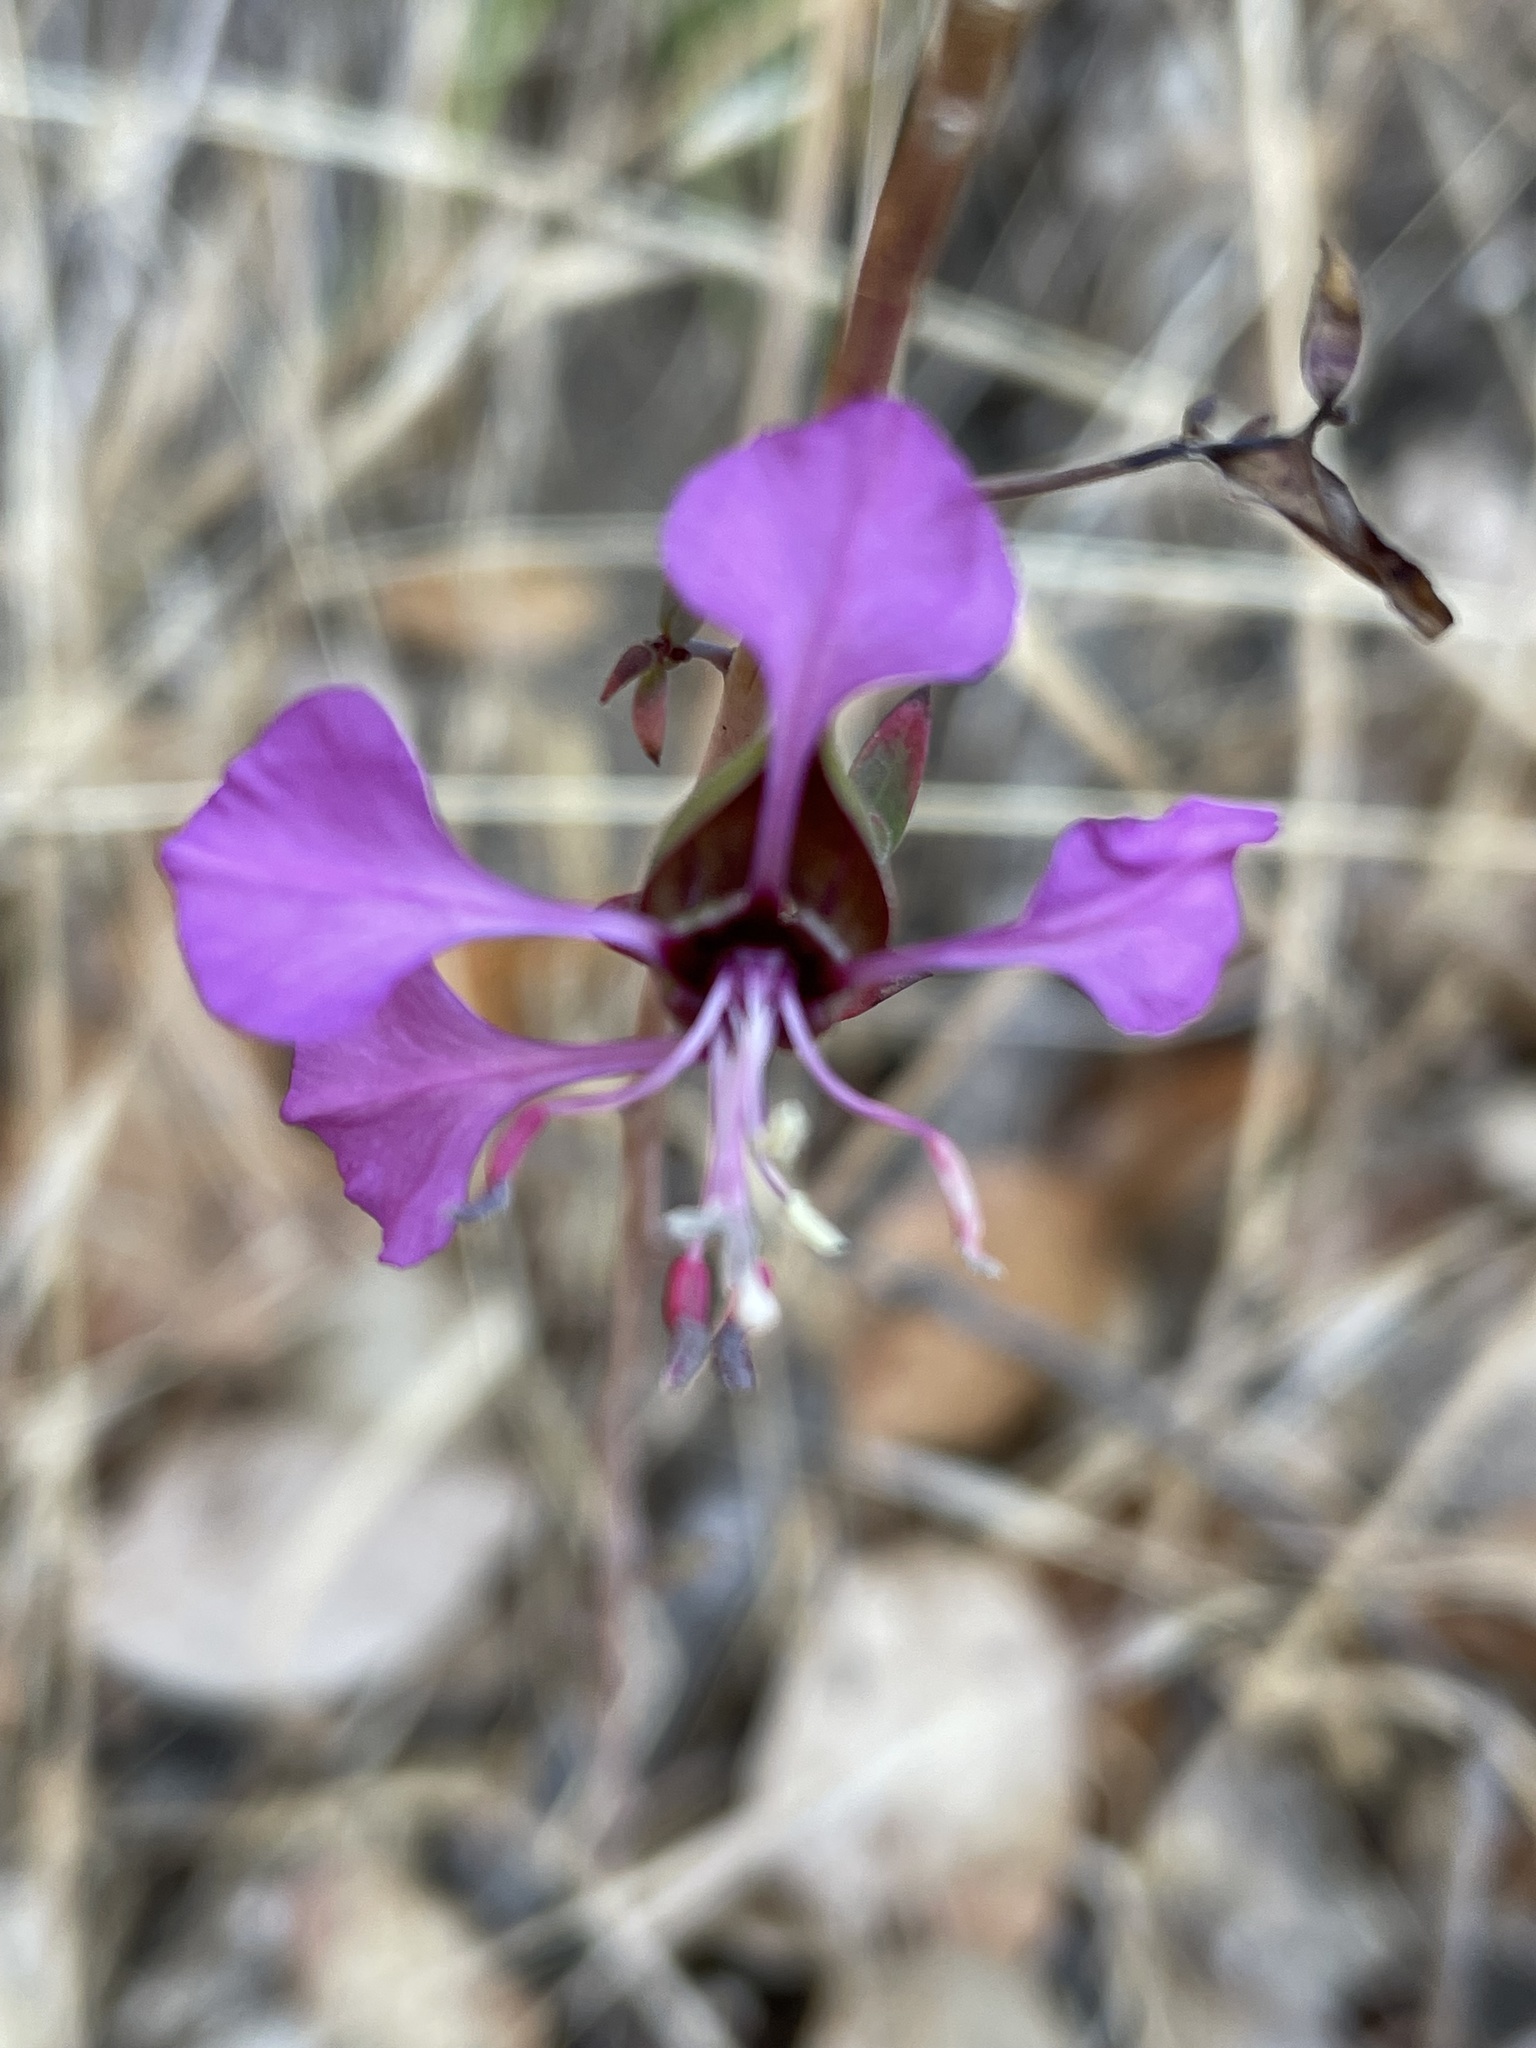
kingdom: Plantae
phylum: Tracheophyta
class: Magnoliopsida
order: Myrtales
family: Onagraceae
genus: Clarkia
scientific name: Clarkia unguiculata
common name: Clarkia
